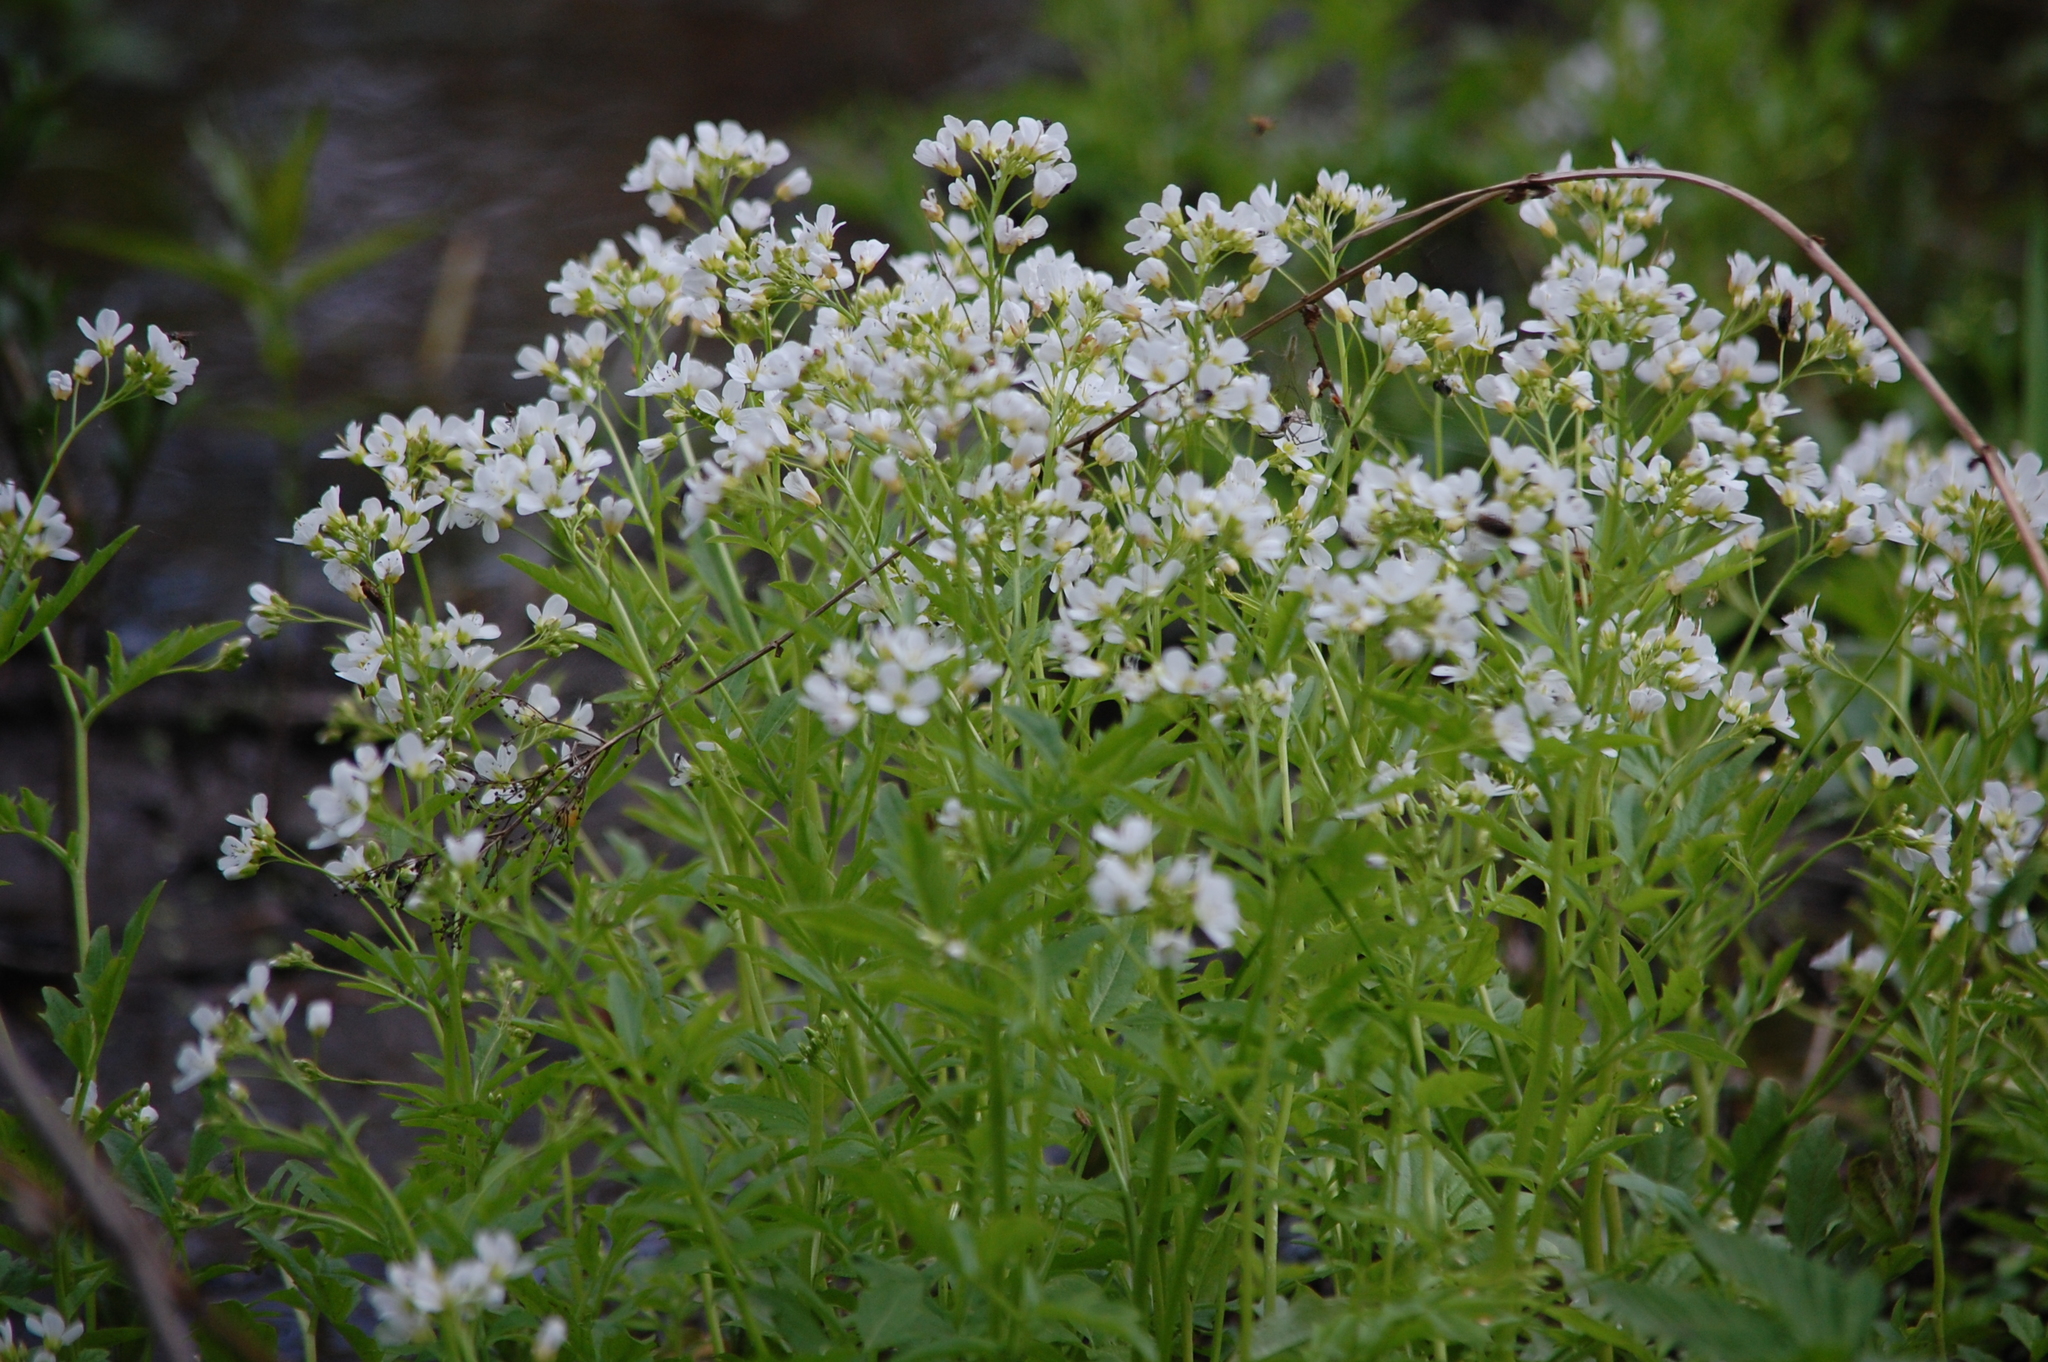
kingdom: Plantae
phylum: Tracheophyta
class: Magnoliopsida
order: Brassicales
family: Brassicaceae
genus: Cardamine
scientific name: Cardamine amara
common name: Large bitter-cress
